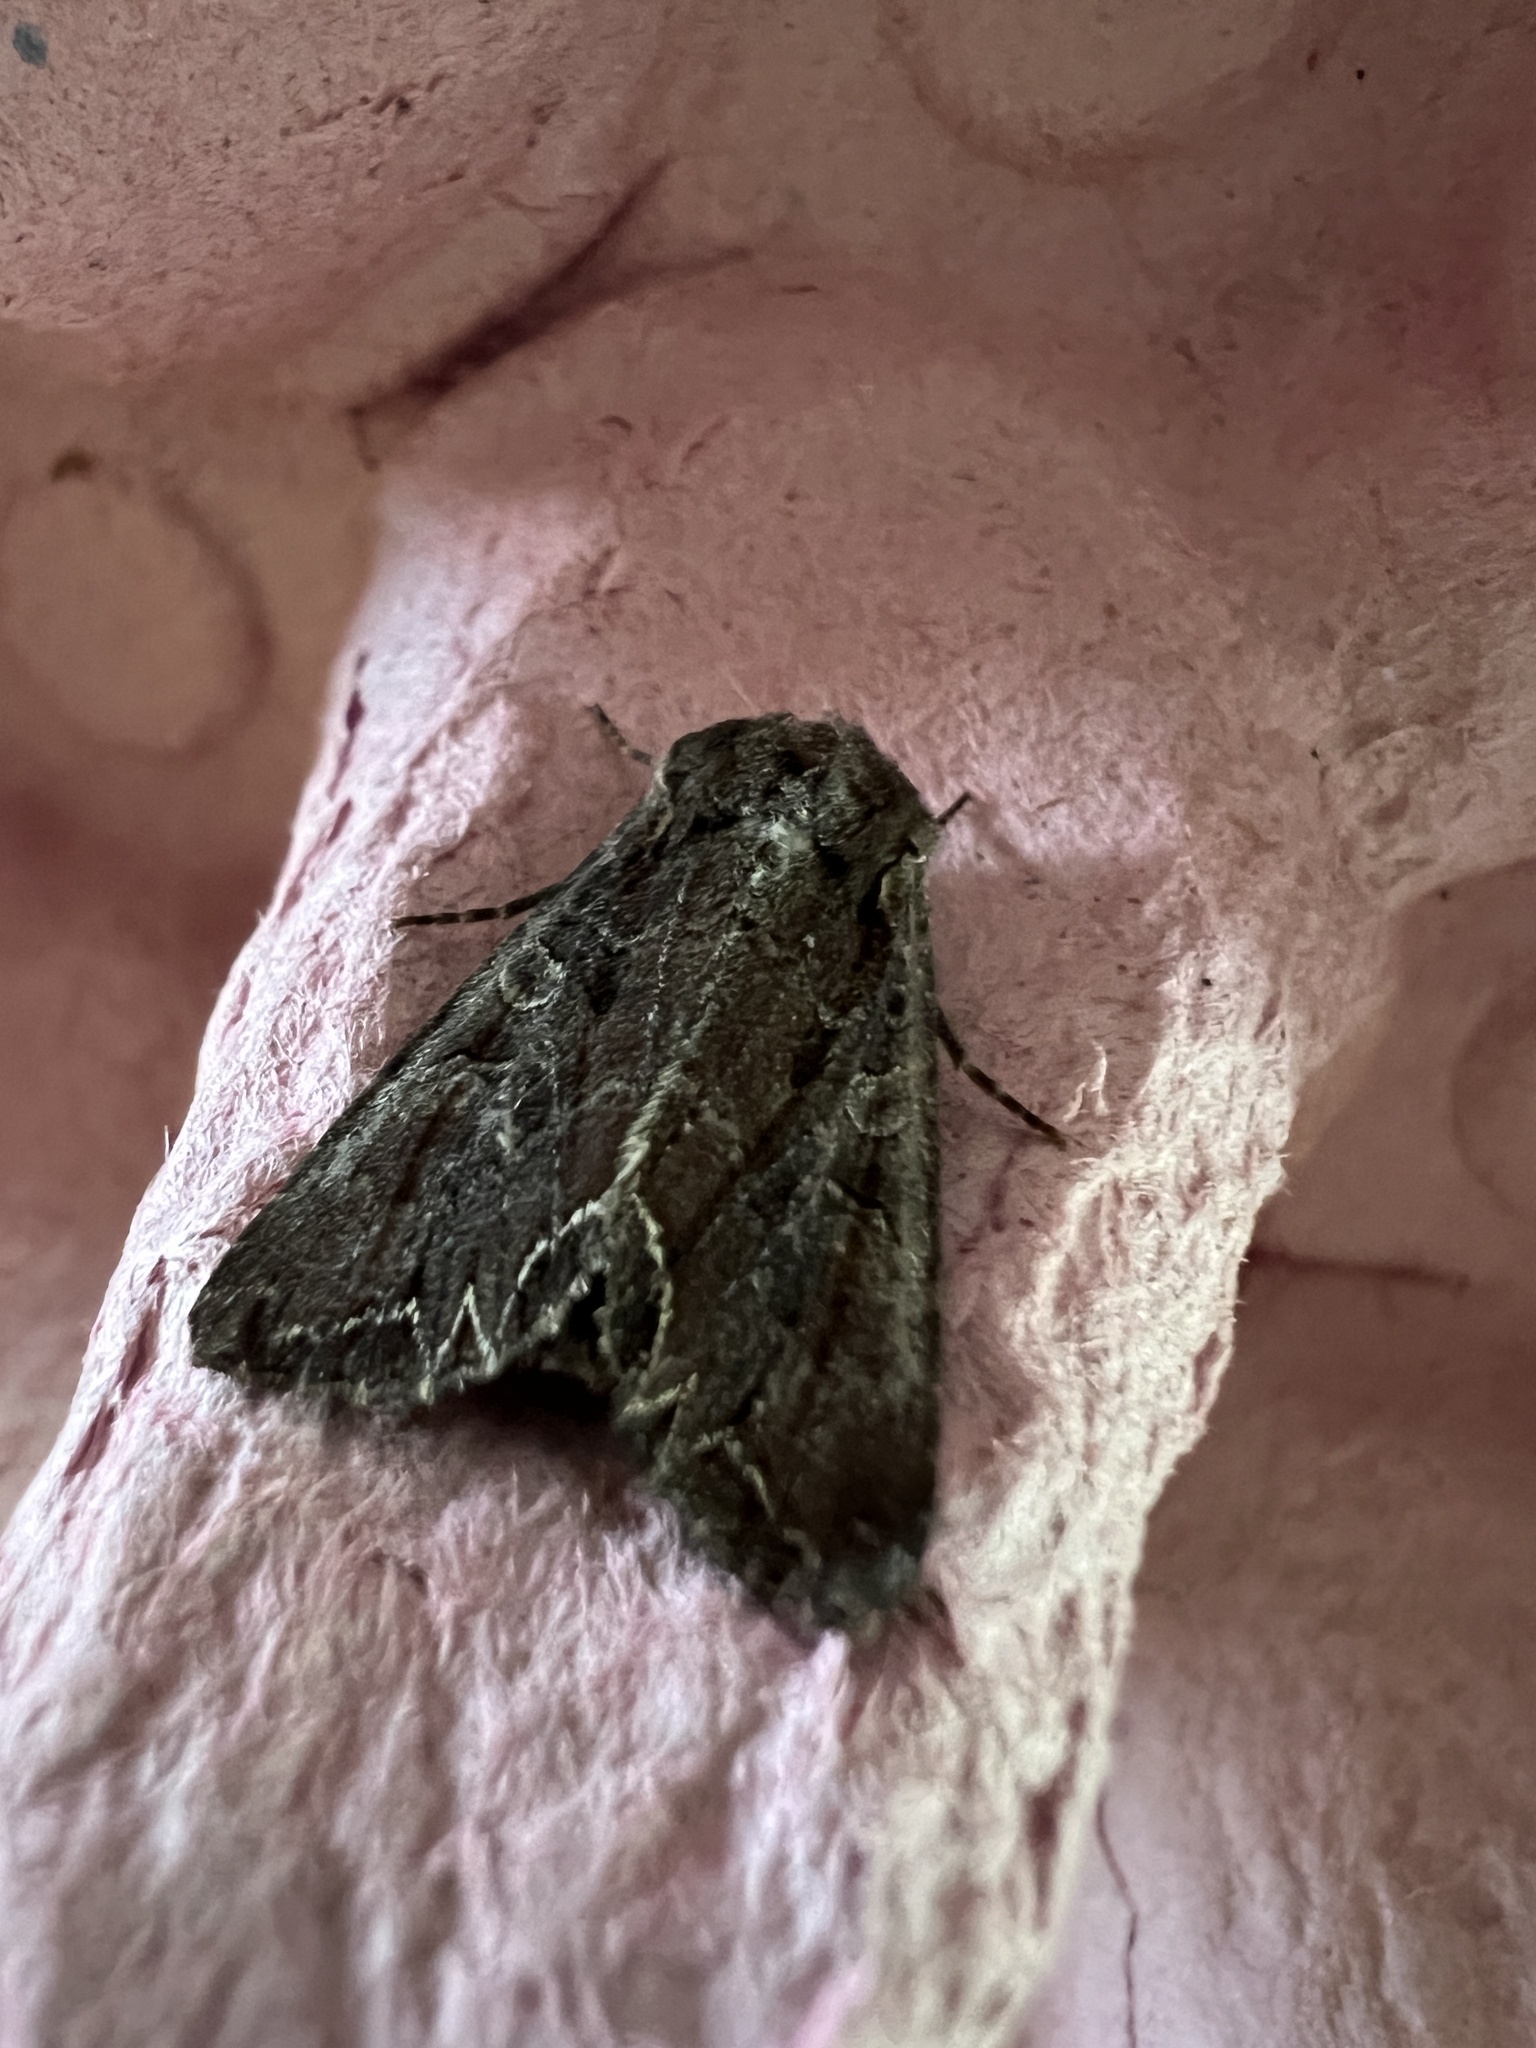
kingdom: Animalia
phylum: Arthropoda
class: Insecta
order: Lepidoptera
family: Noctuidae
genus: Lacanobia
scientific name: Lacanobia suasa
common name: Dog's tooth
